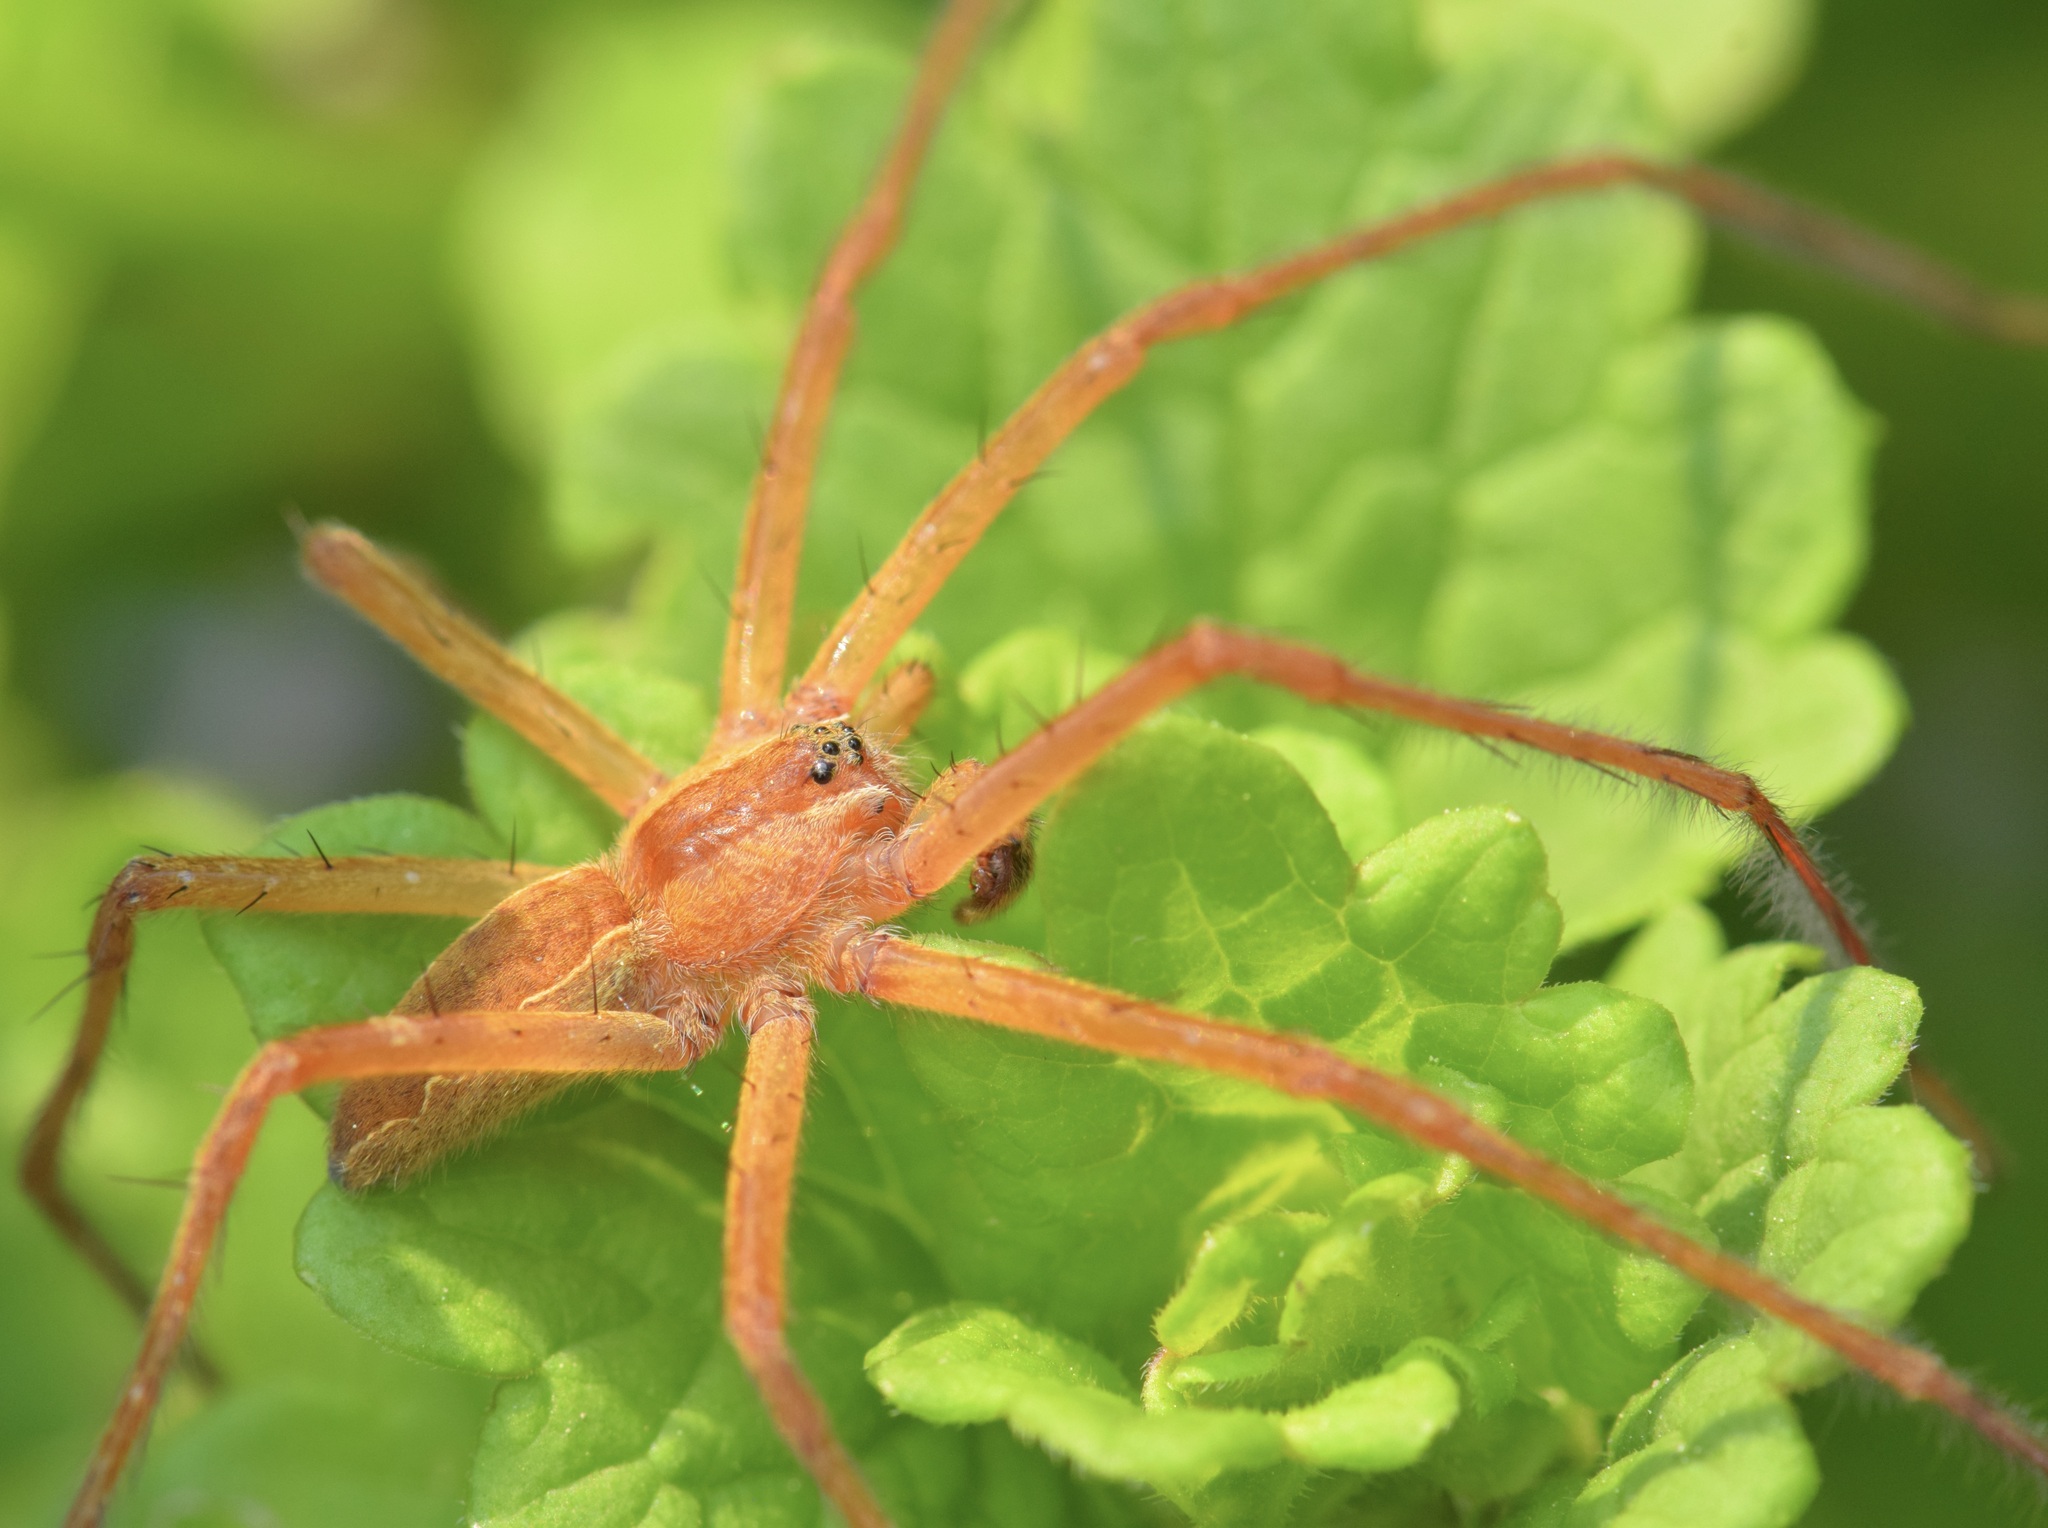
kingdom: Animalia
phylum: Arthropoda
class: Arachnida
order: Araneae
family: Pisauridae
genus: Pisaurina
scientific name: Pisaurina mira
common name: American nursery web spider
